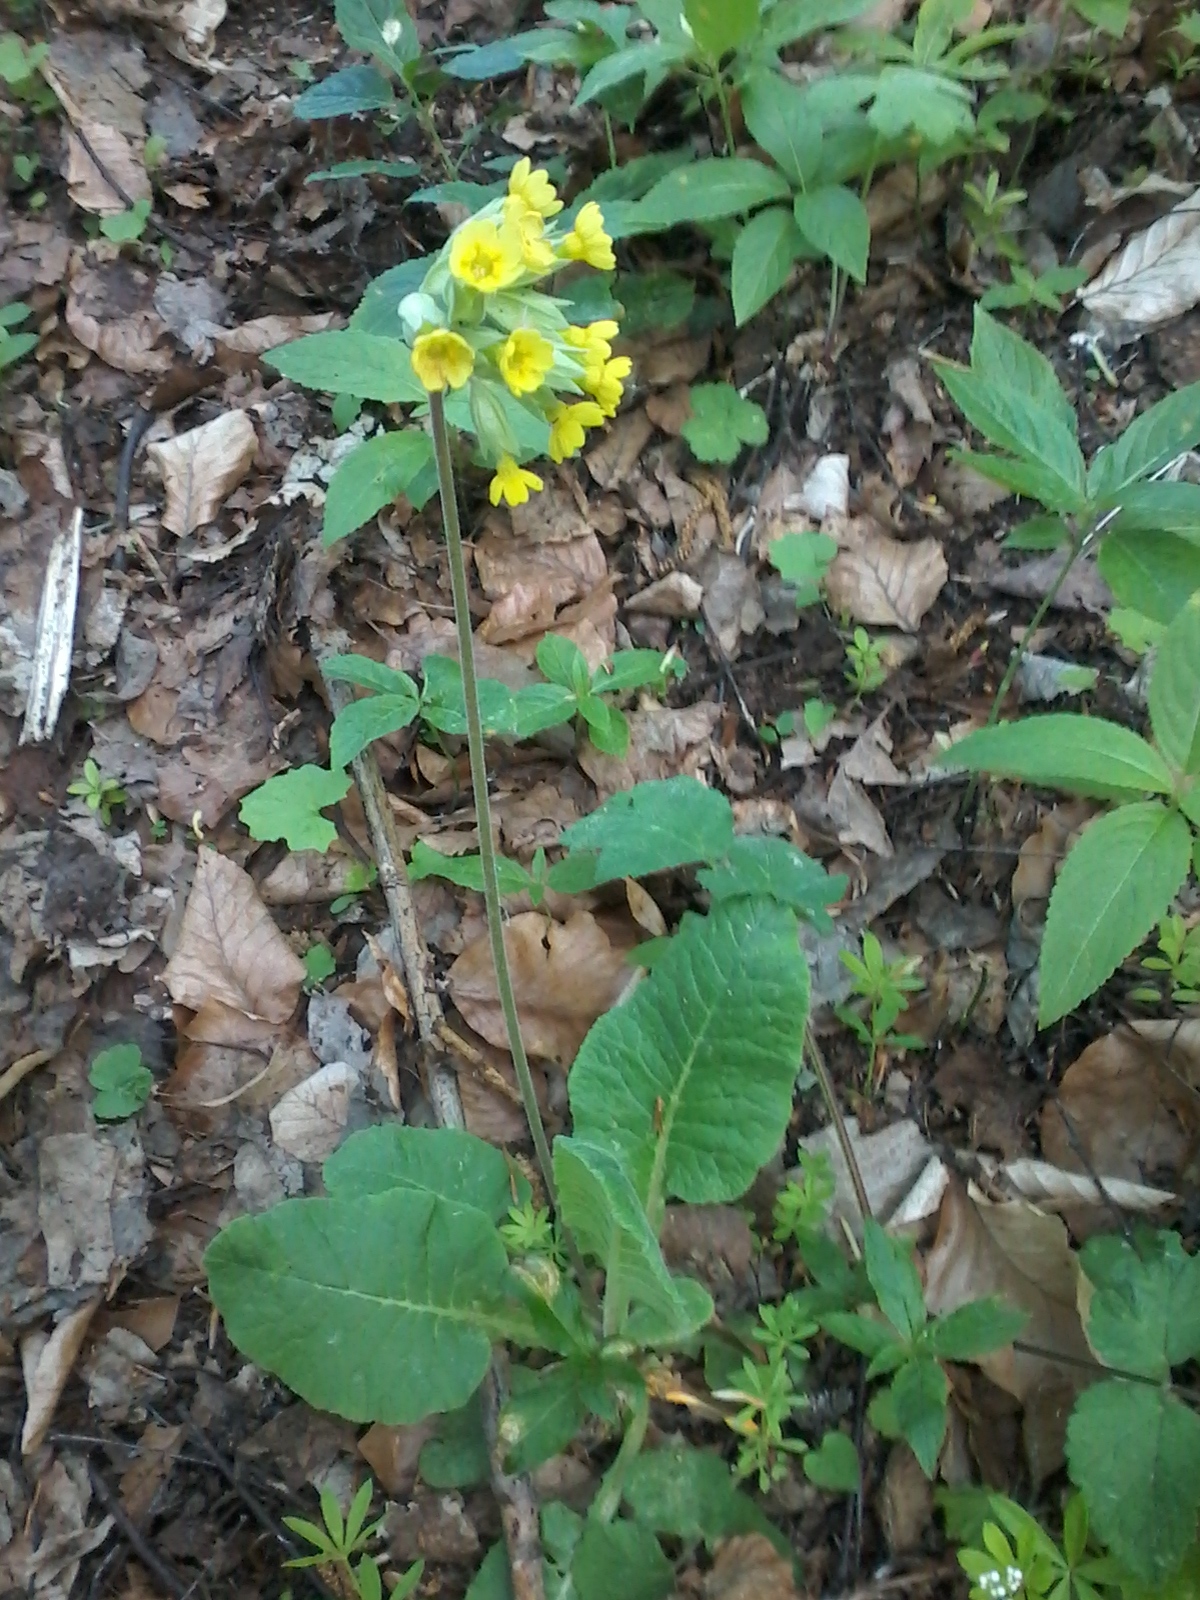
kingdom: Plantae
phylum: Tracheophyta
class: Magnoliopsida
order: Ericales
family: Primulaceae
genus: Primula
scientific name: Primula veris
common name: Cowslip
